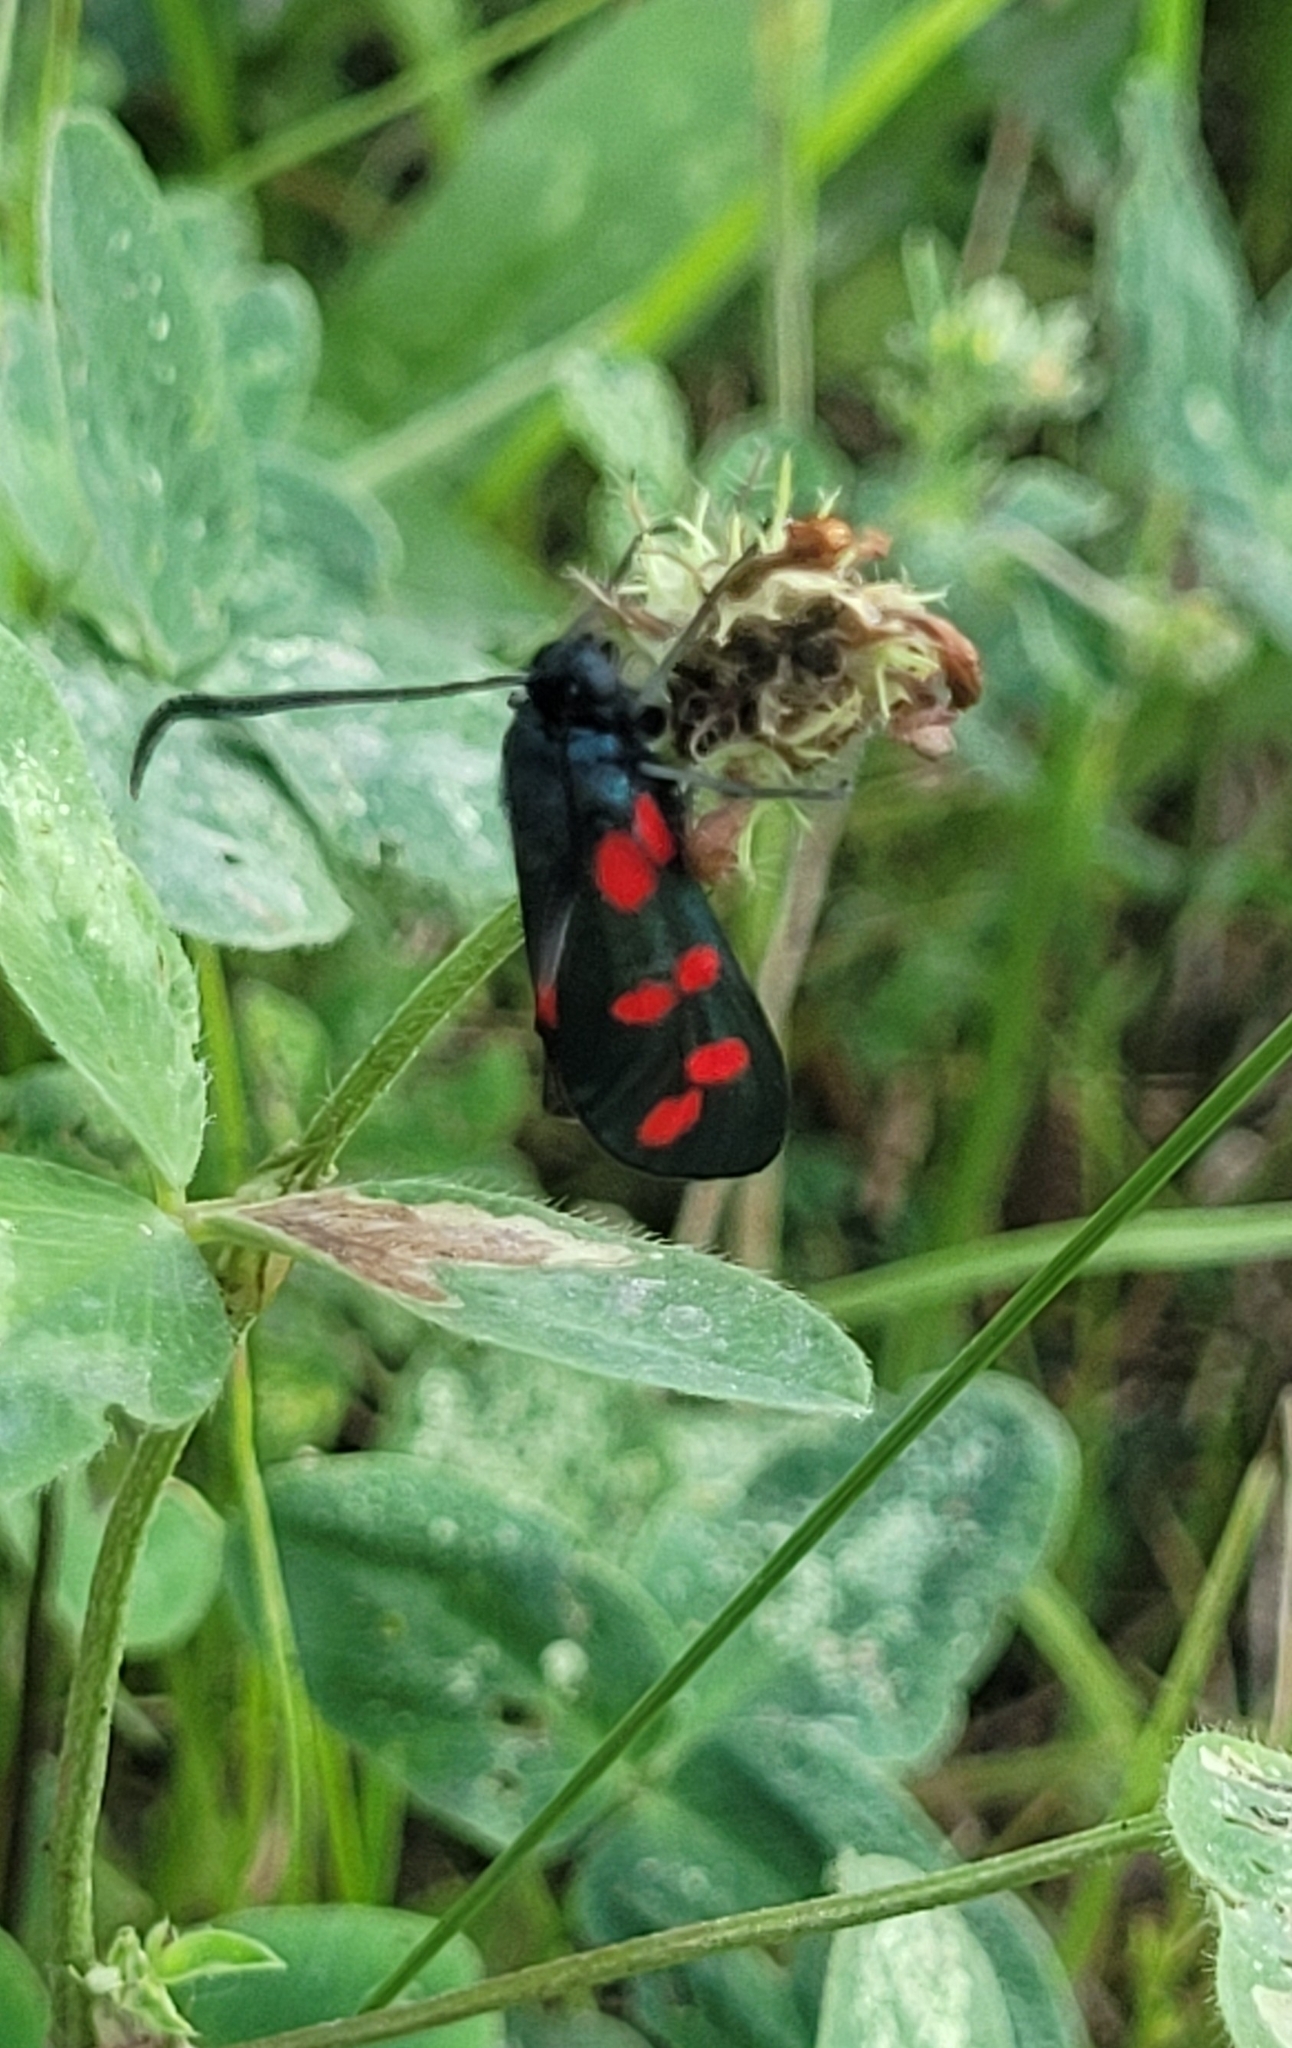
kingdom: Animalia
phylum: Arthropoda
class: Insecta
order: Lepidoptera
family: Zygaenidae
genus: Zygaena
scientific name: Zygaena filipendulae
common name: Six-spot burnet
